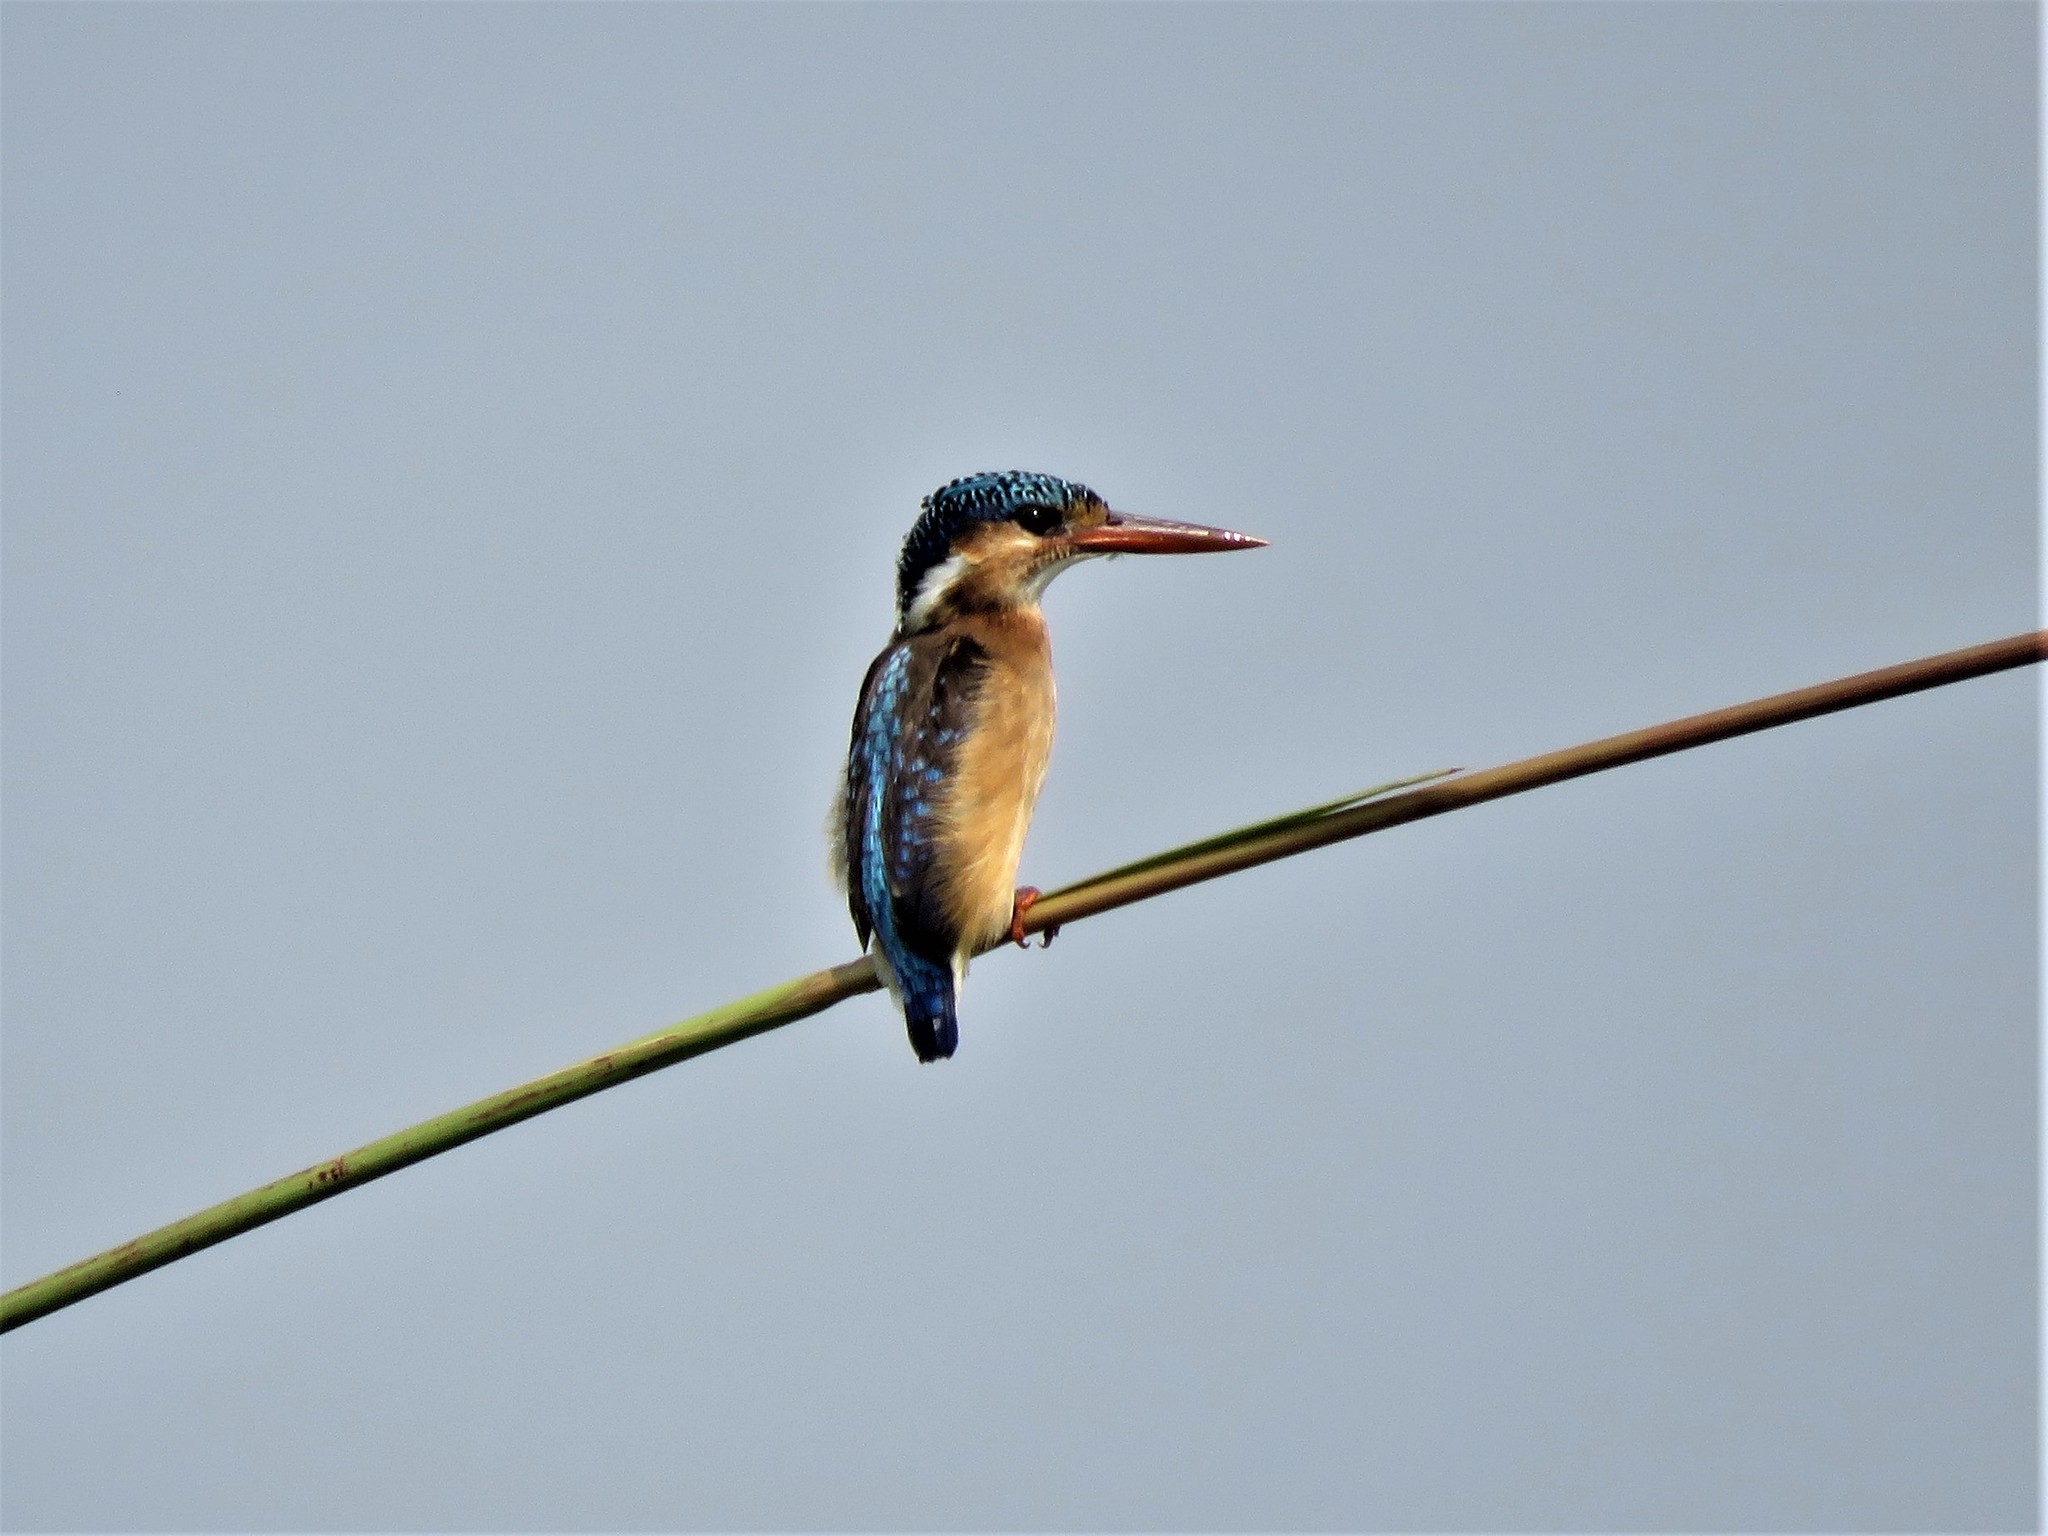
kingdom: Animalia
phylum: Chordata
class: Aves
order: Coraciiformes
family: Alcedinidae
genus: Corythornis
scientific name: Corythornis cristatus
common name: Malachite kingfisher
